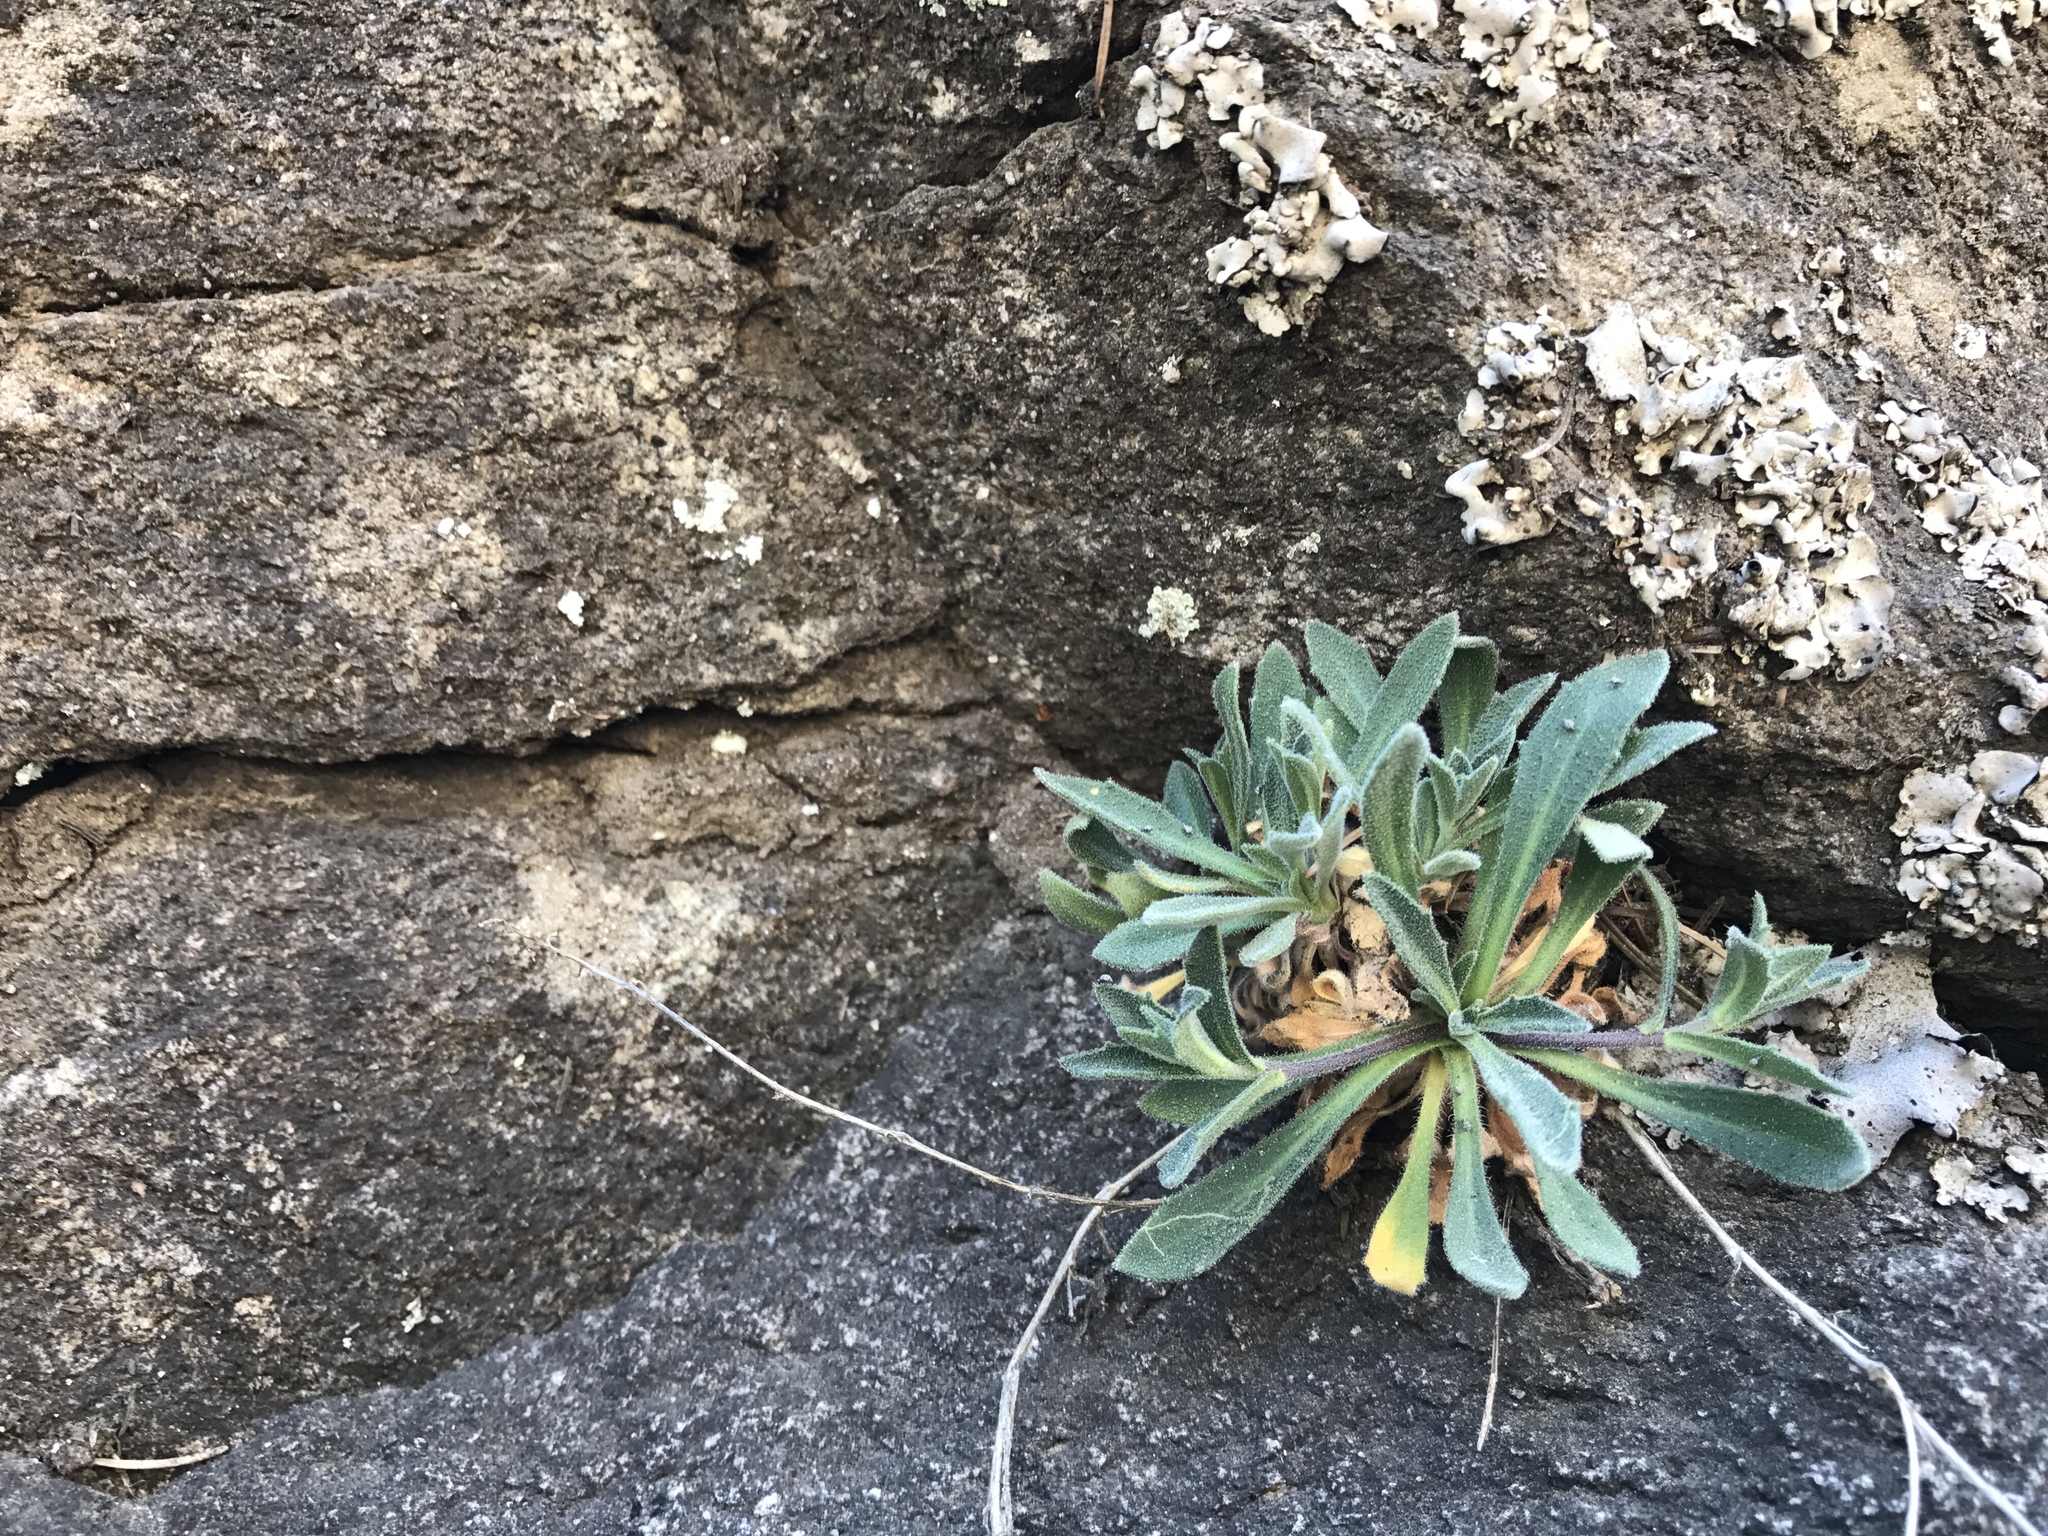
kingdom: Plantae
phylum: Tracheophyta
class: Magnoliopsida
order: Brassicales
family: Brassicaceae
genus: Boechera
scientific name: Boechera perennans
